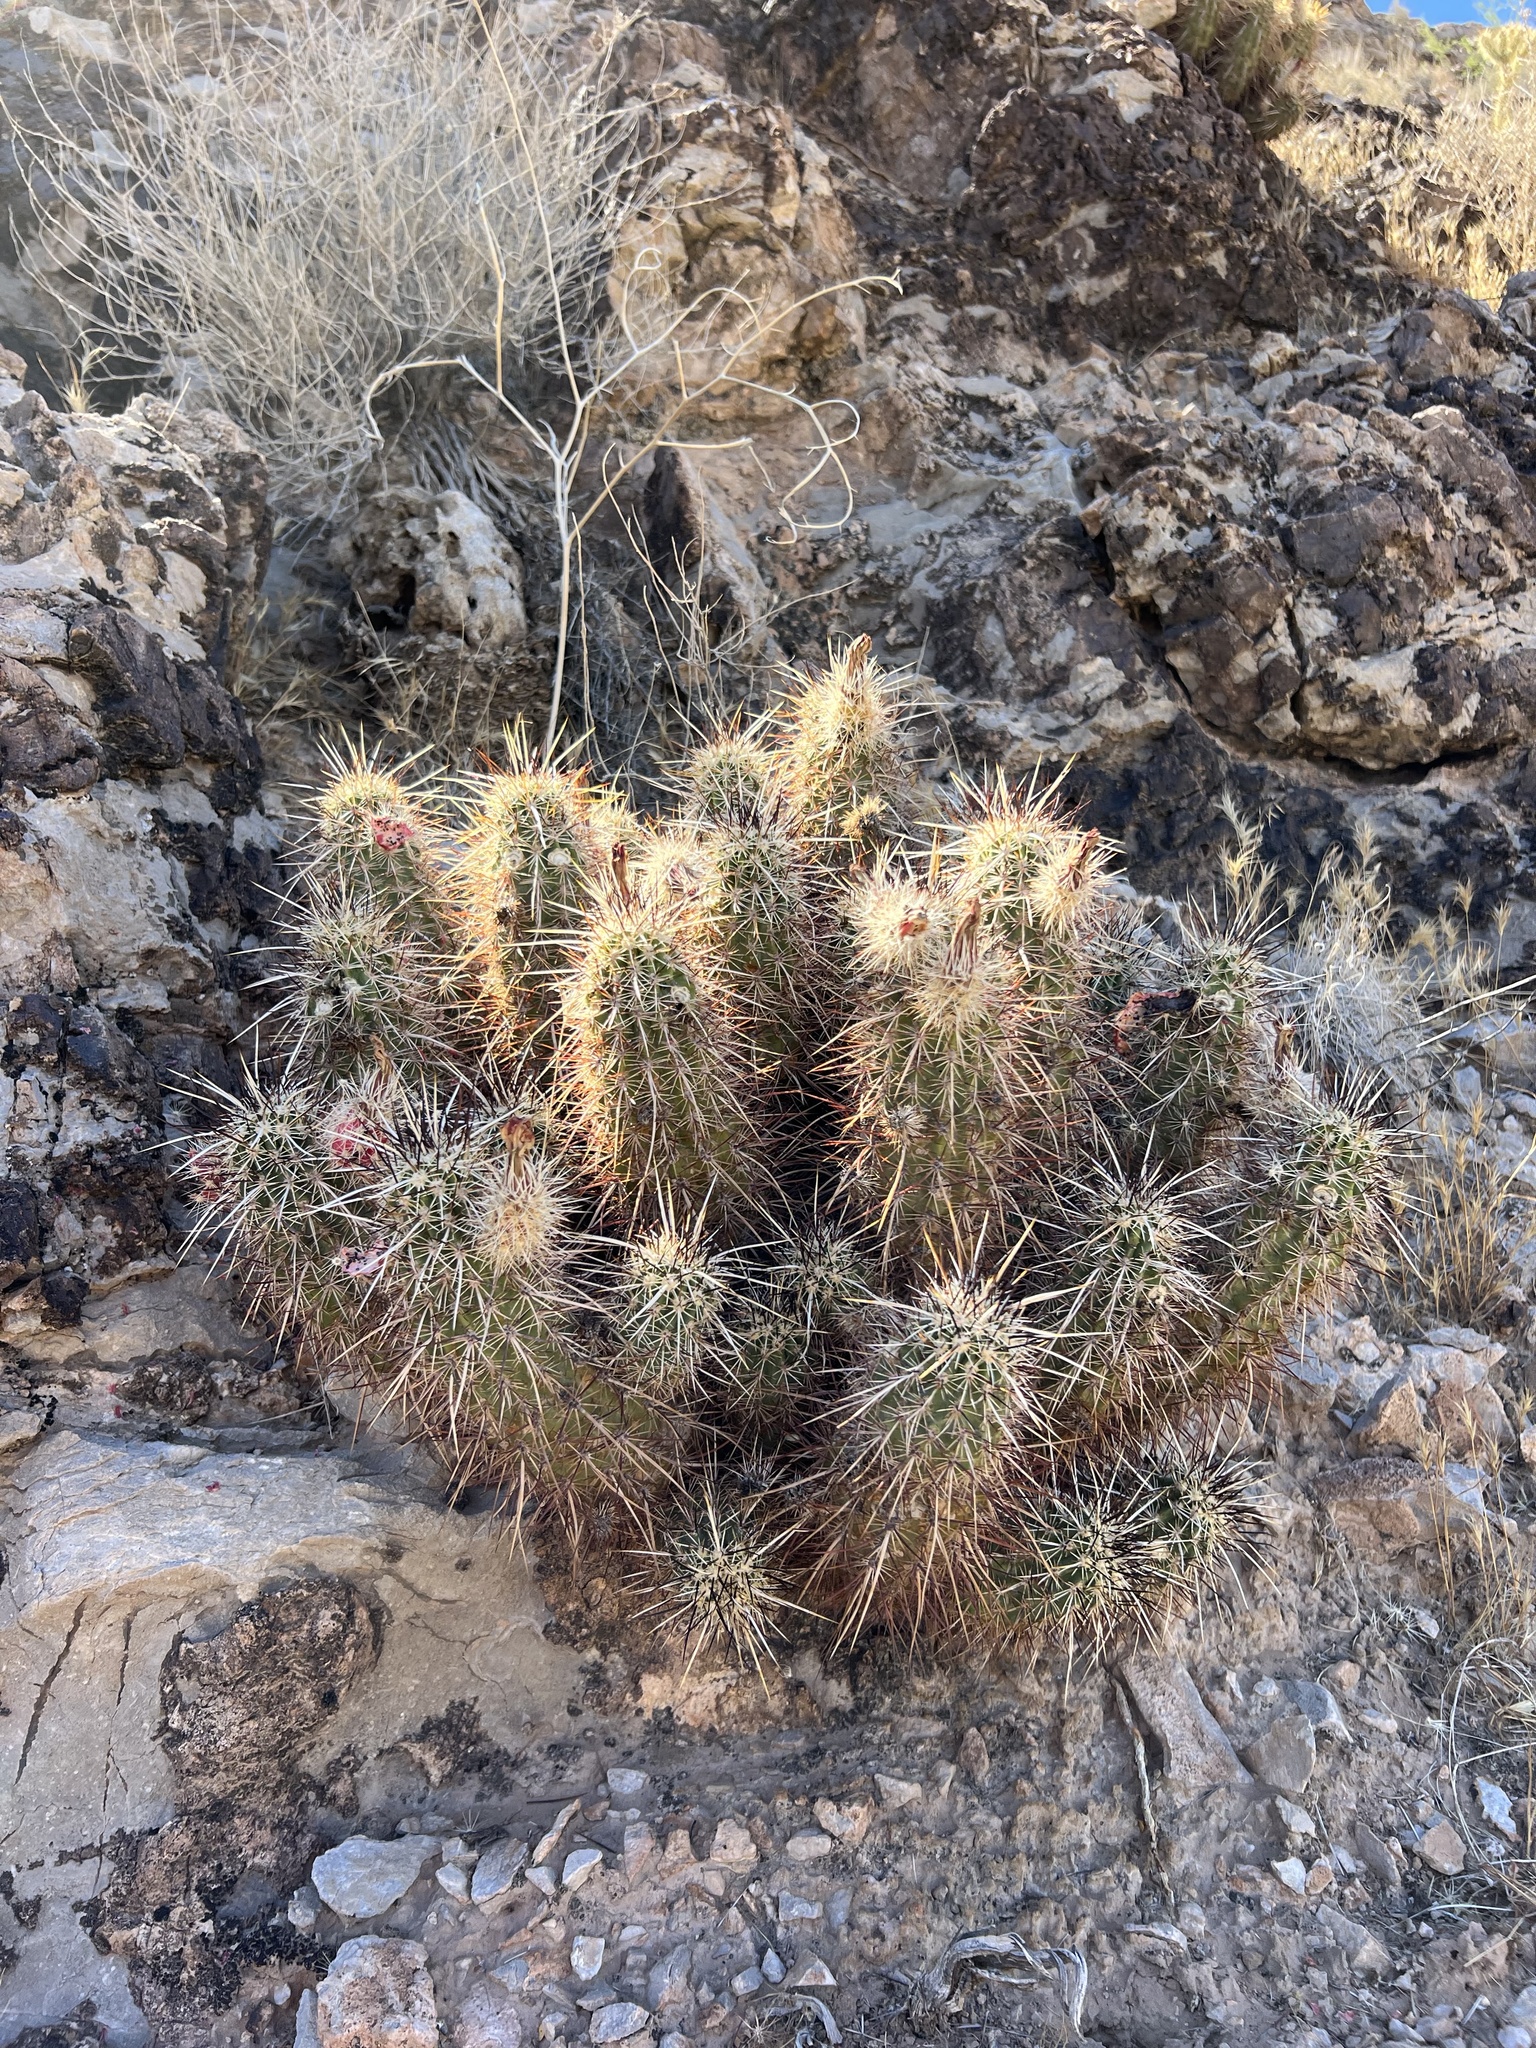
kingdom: Plantae
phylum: Tracheophyta
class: Magnoliopsida
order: Caryophyllales
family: Cactaceae
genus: Echinocereus
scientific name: Echinocereus engelmannii
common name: Engelmann's hedgehog cactus
